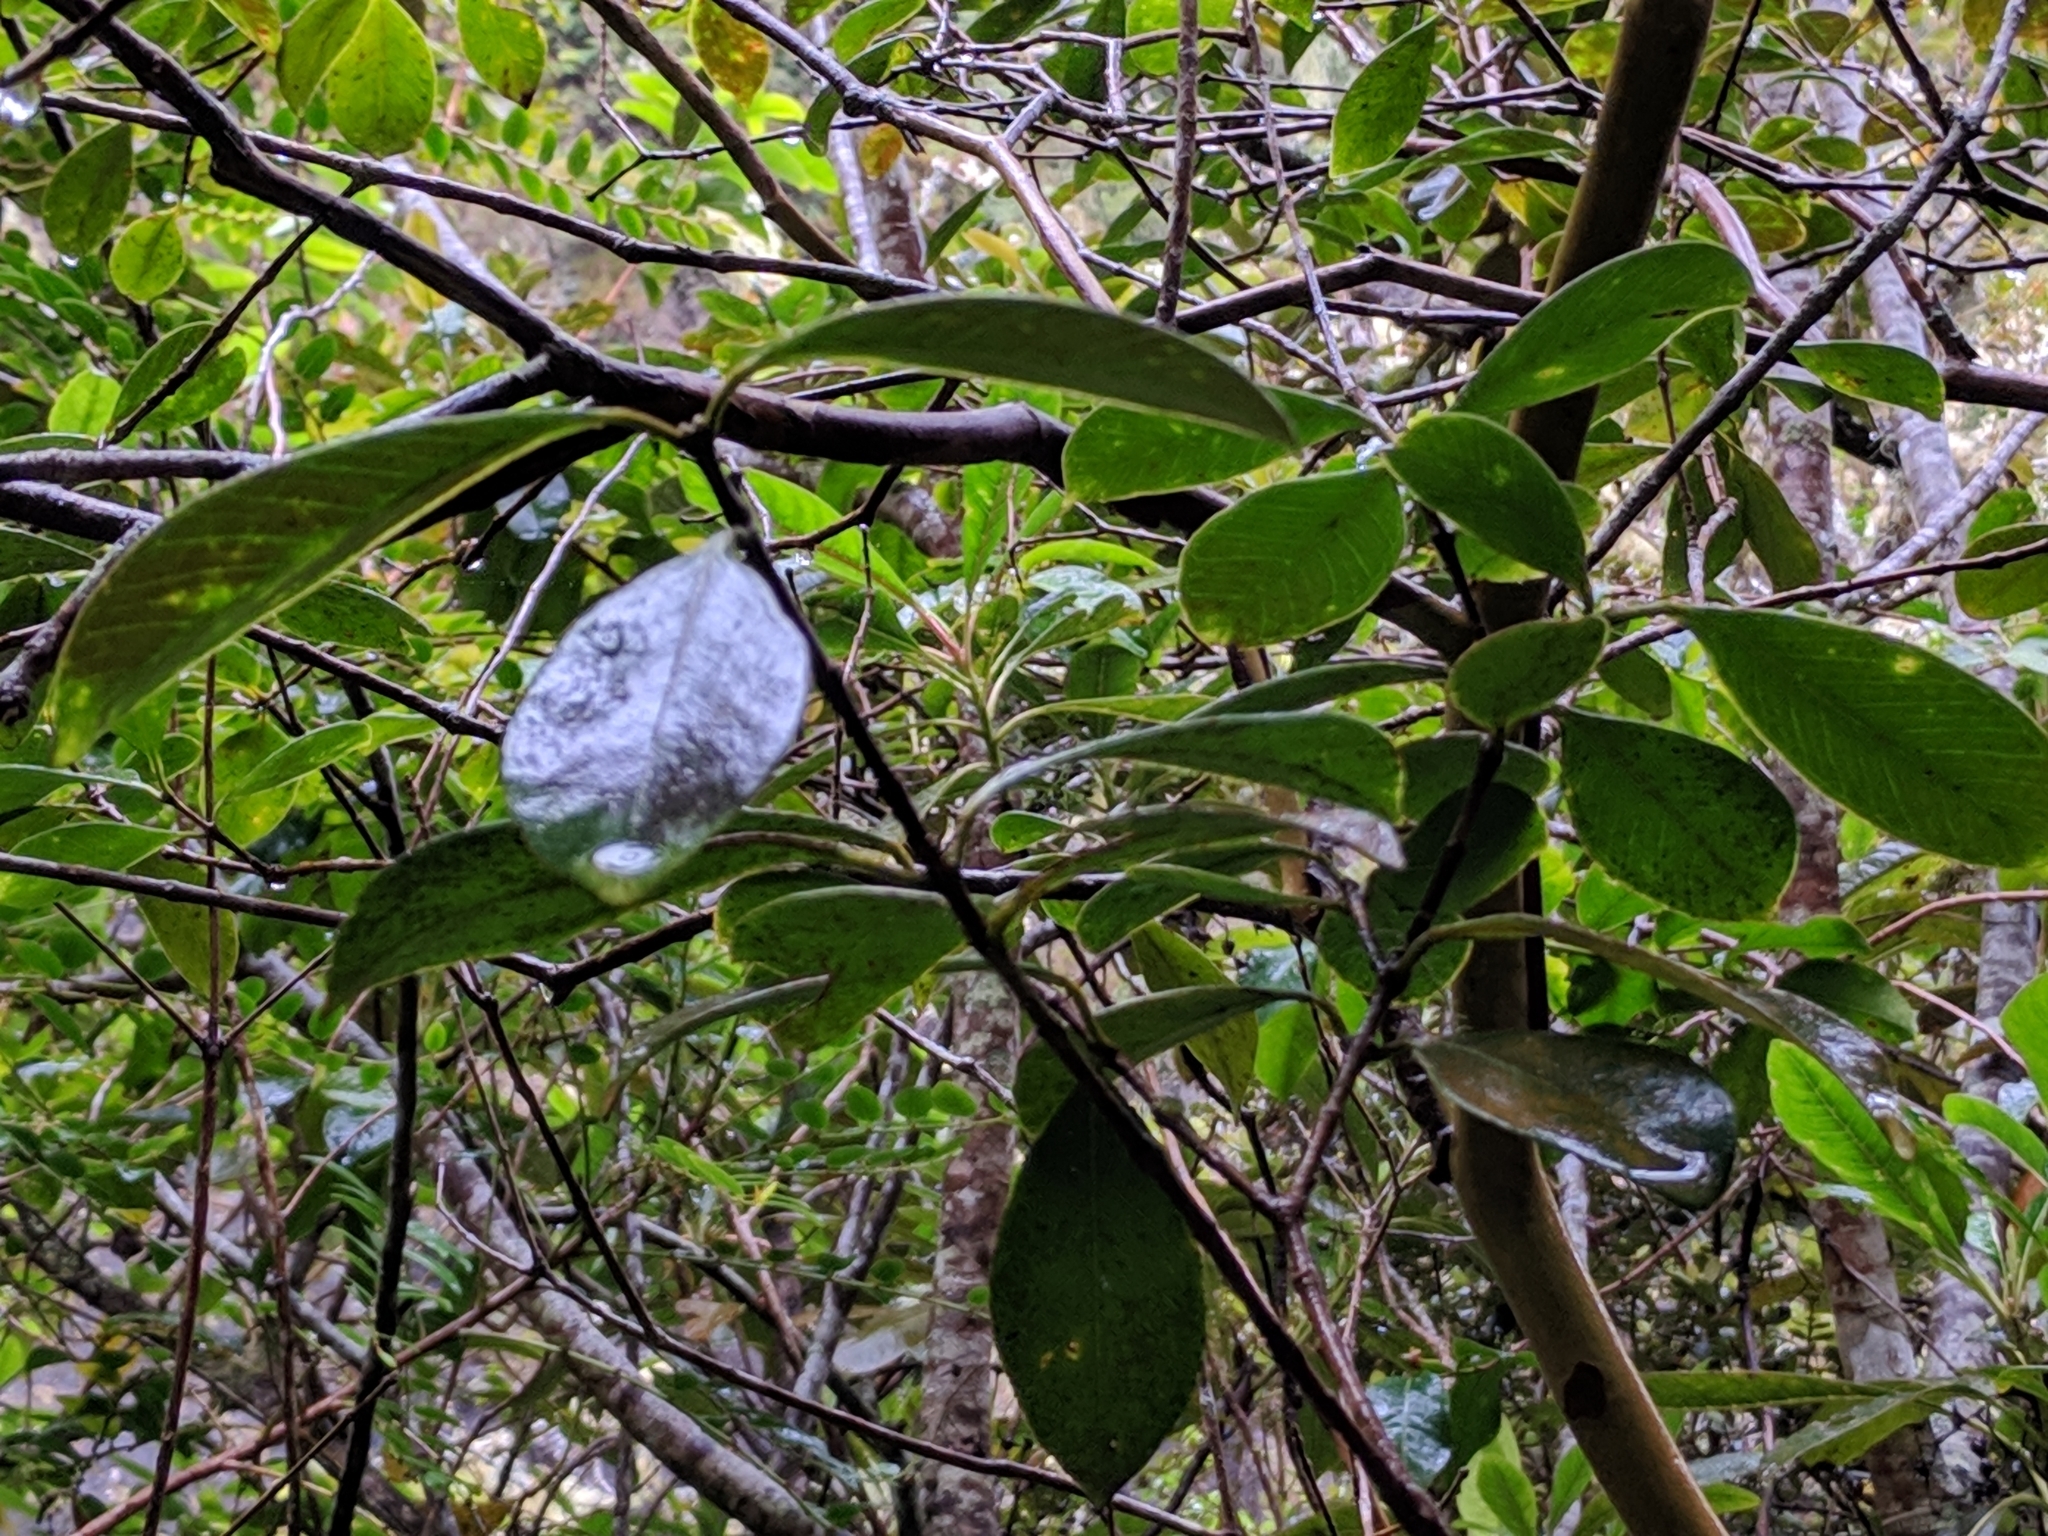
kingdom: Plantae
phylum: Tracheophyta
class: Magnoliopsida
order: Myrtales
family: Myrtaceae
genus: Psidium
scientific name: Psidium cattleianum
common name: Strawberry guava
